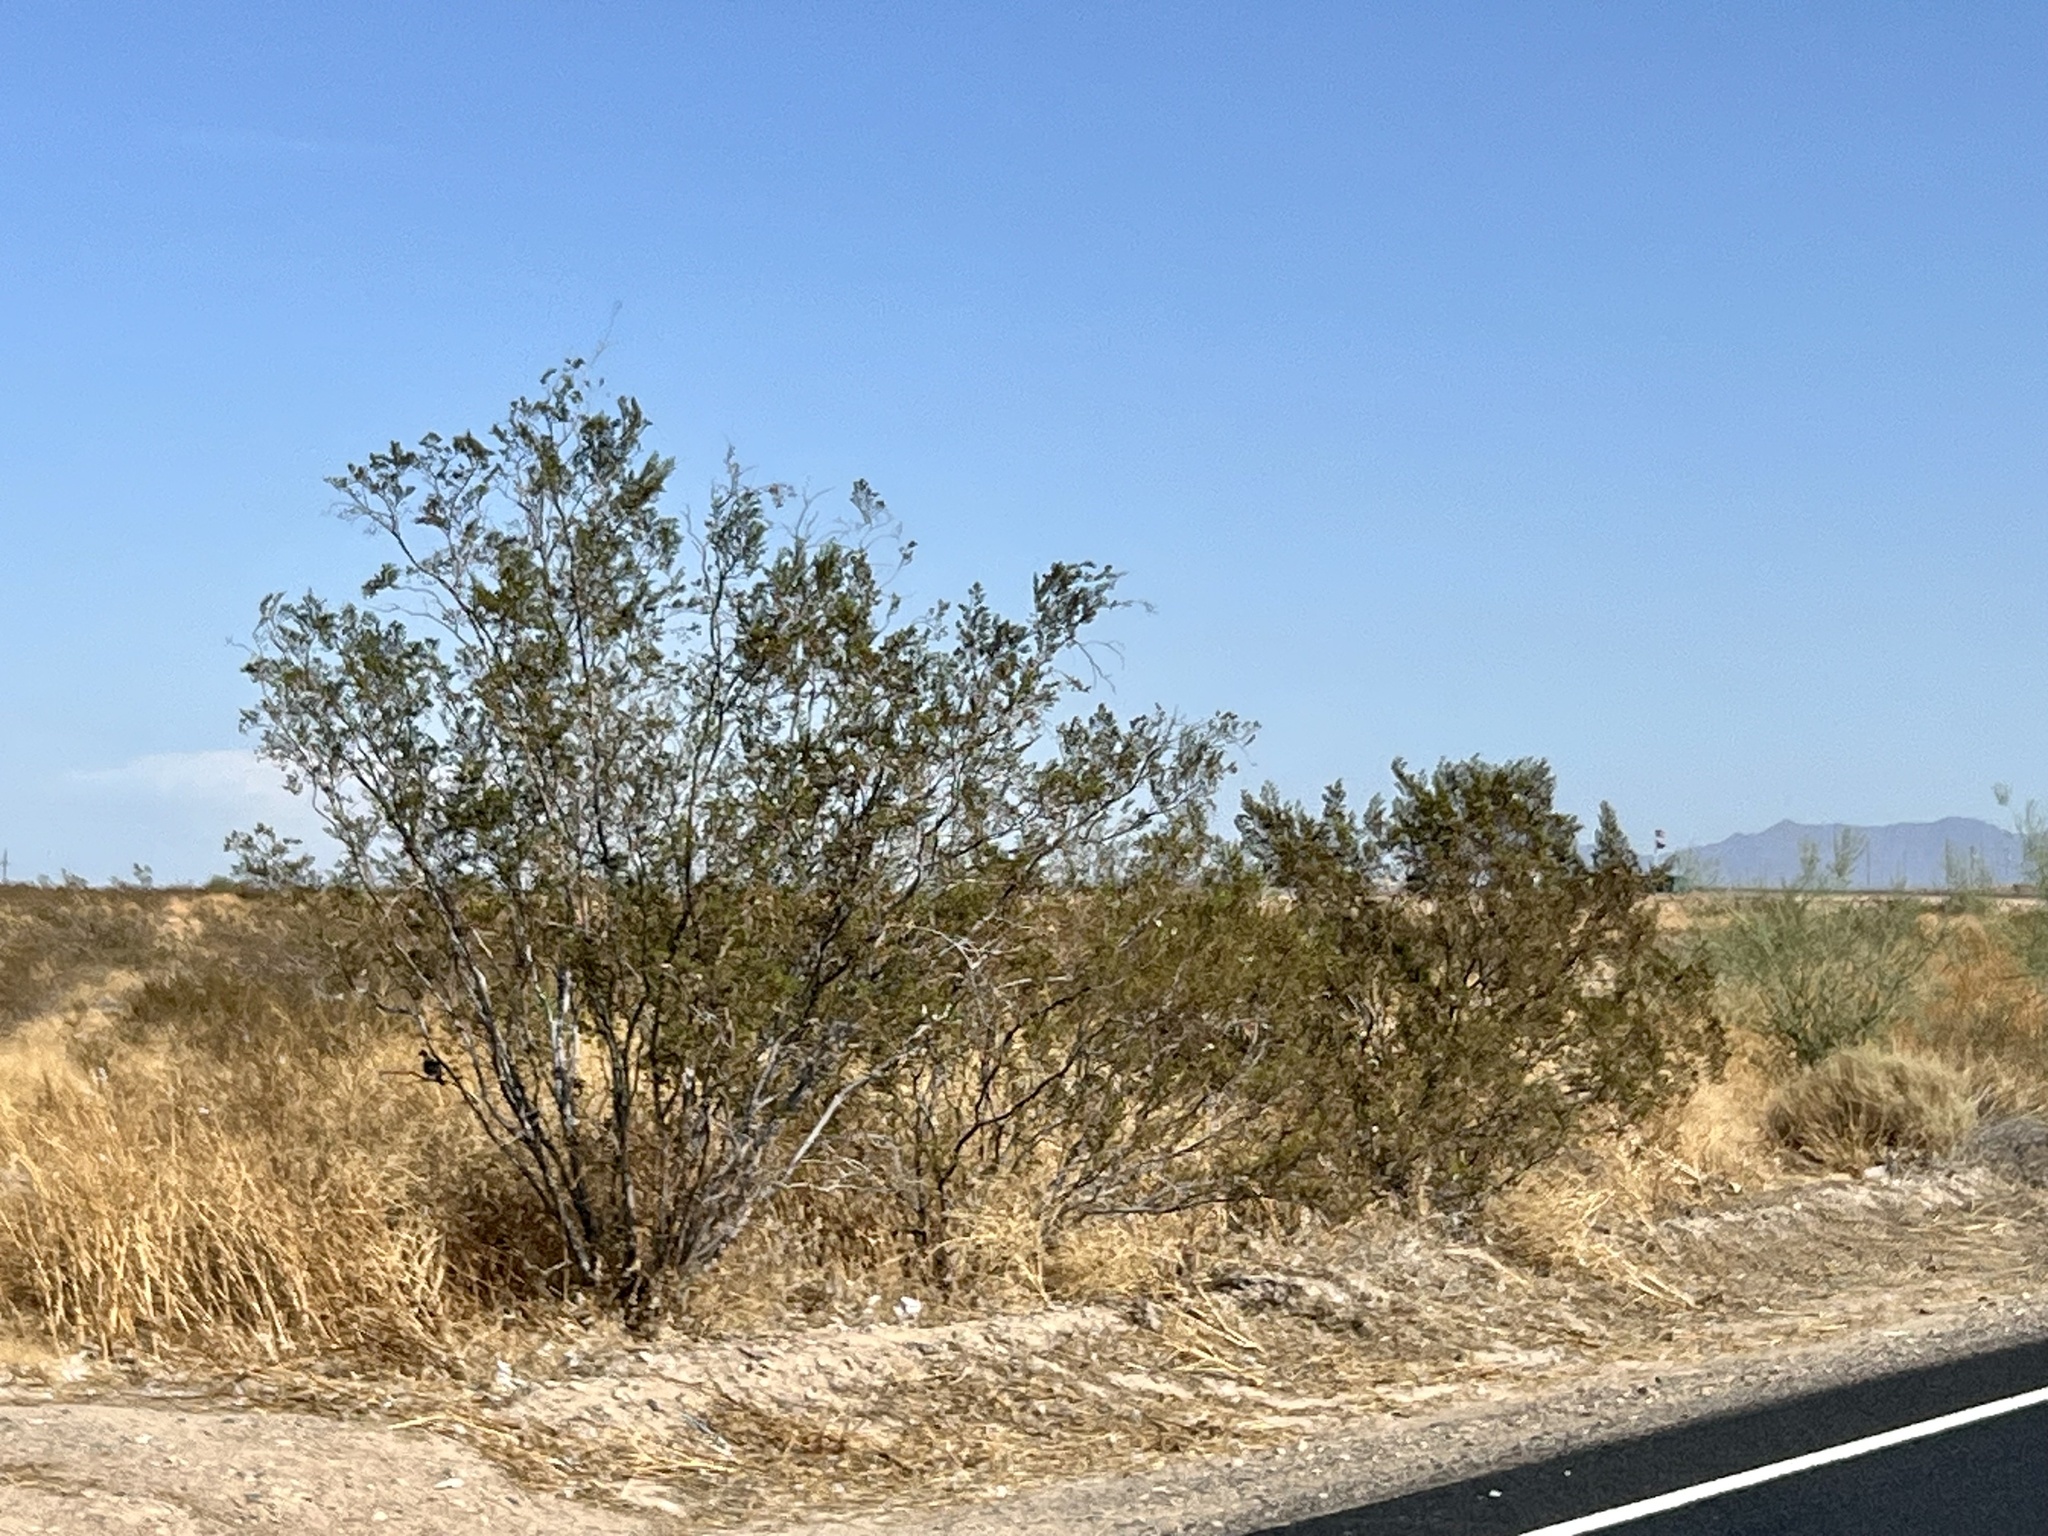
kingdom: Plantae
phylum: Tracheophyta
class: Magnoliopsida
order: Zygophyllales
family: Zygophyllaceae
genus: Larrea
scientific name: Larrea tridentata
